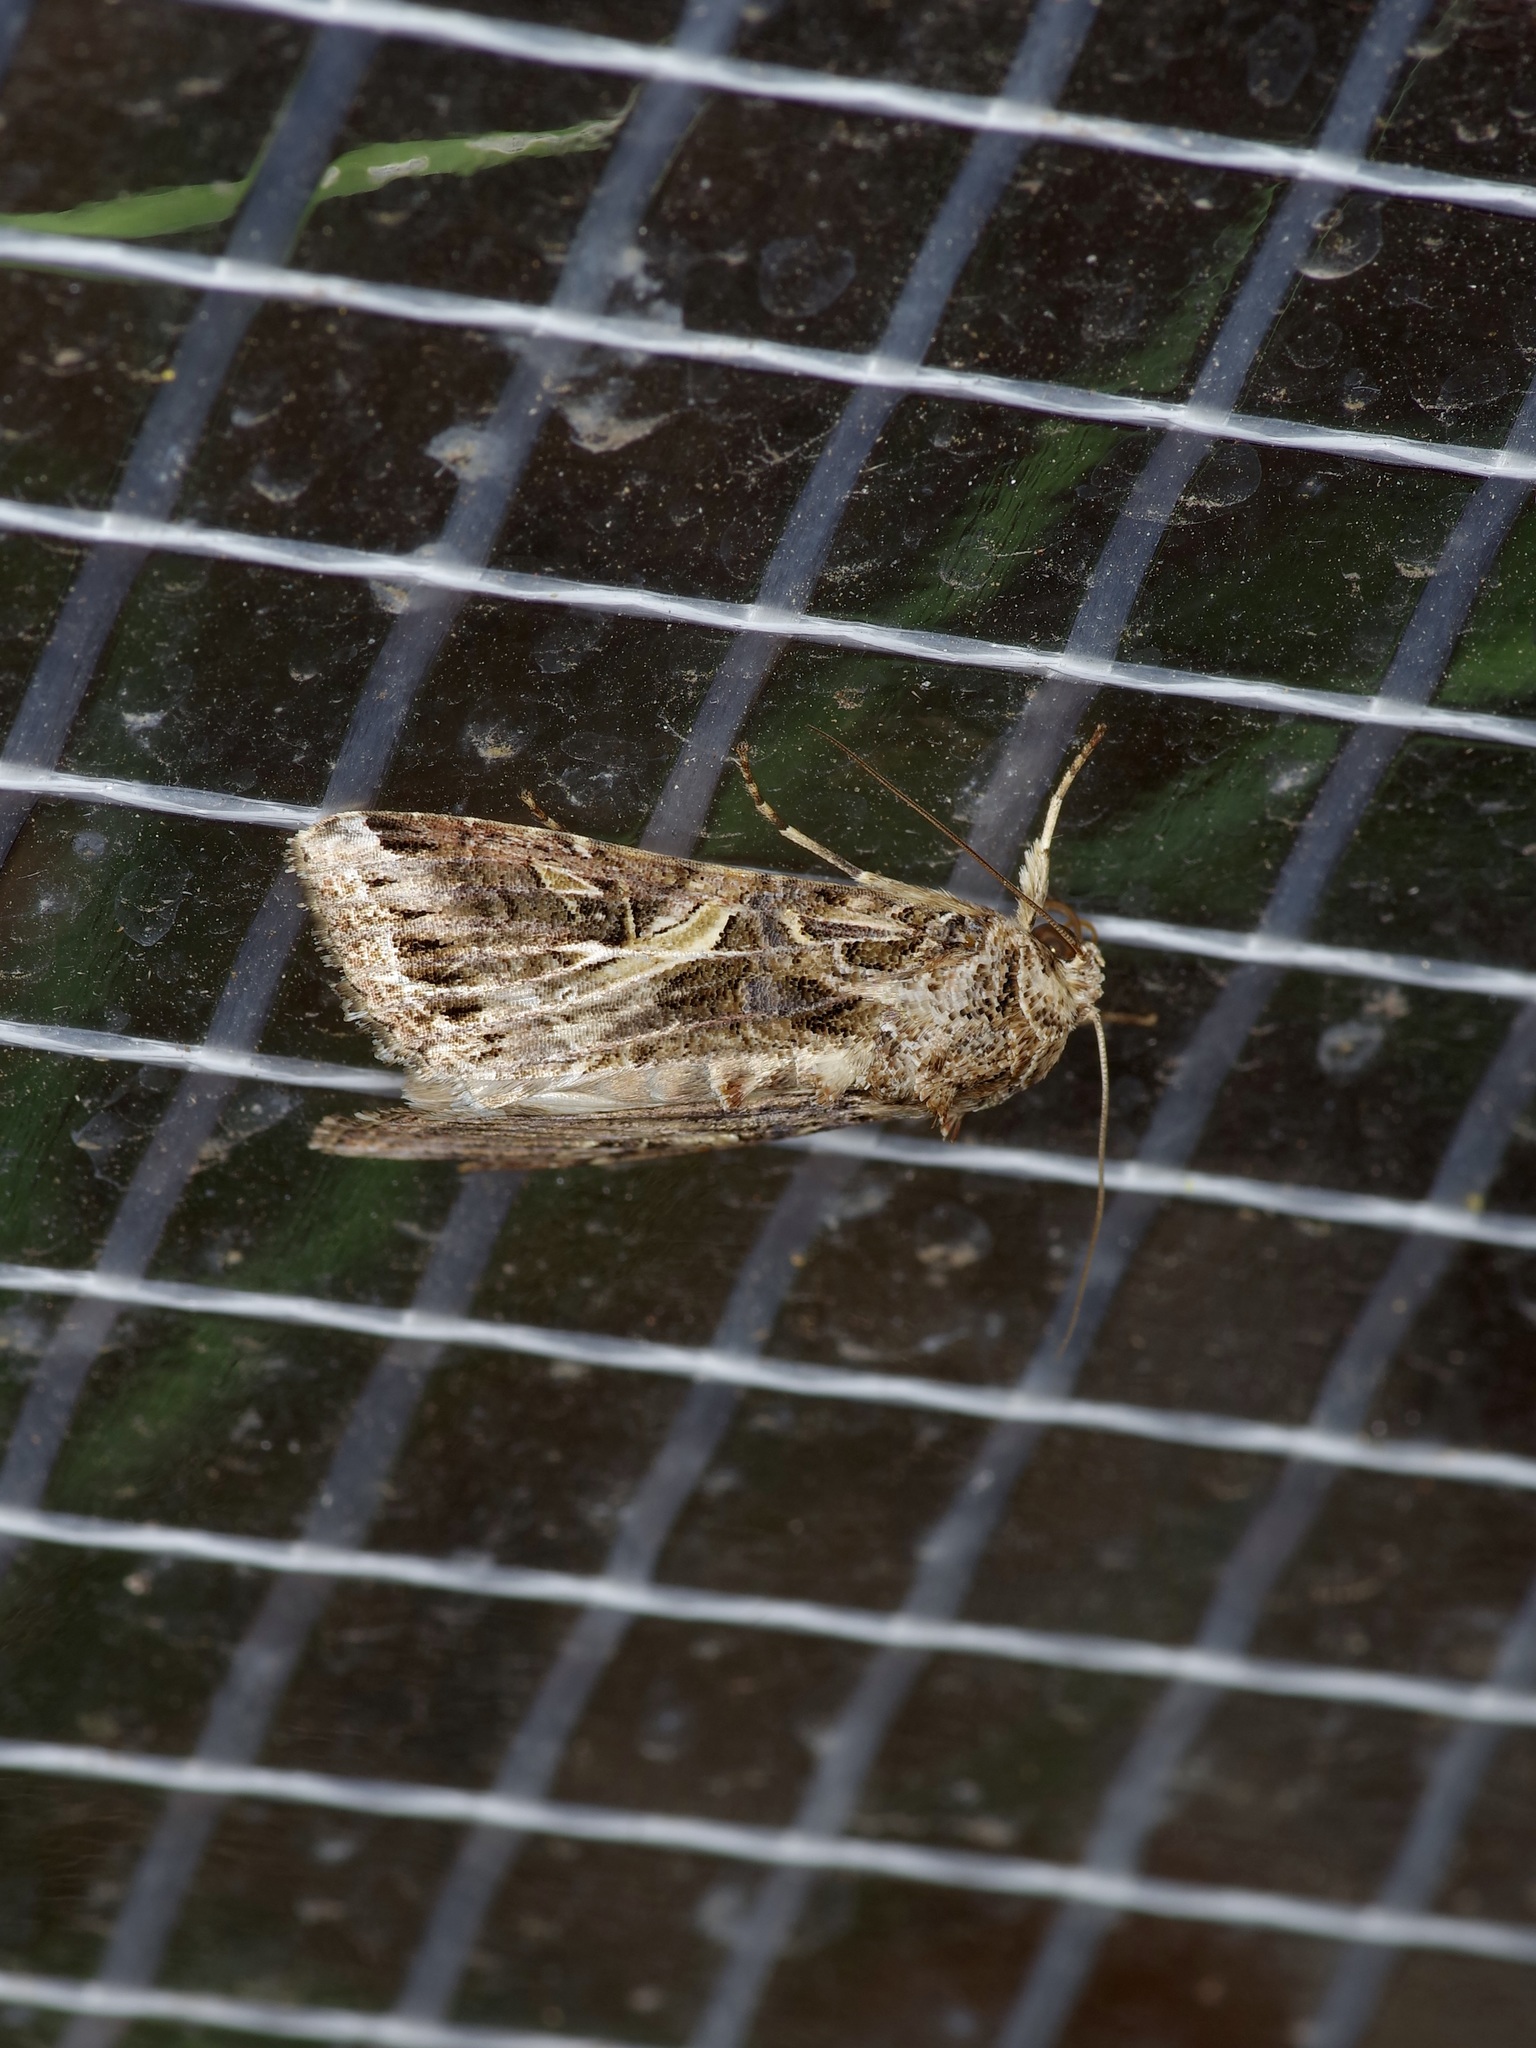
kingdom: Animalia
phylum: Arthropoda
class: Insecta
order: Lepidoptera
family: Noctuidae
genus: Spodoptera
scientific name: Spodoptera ornithogalli
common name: Yellow-striped armyworm
